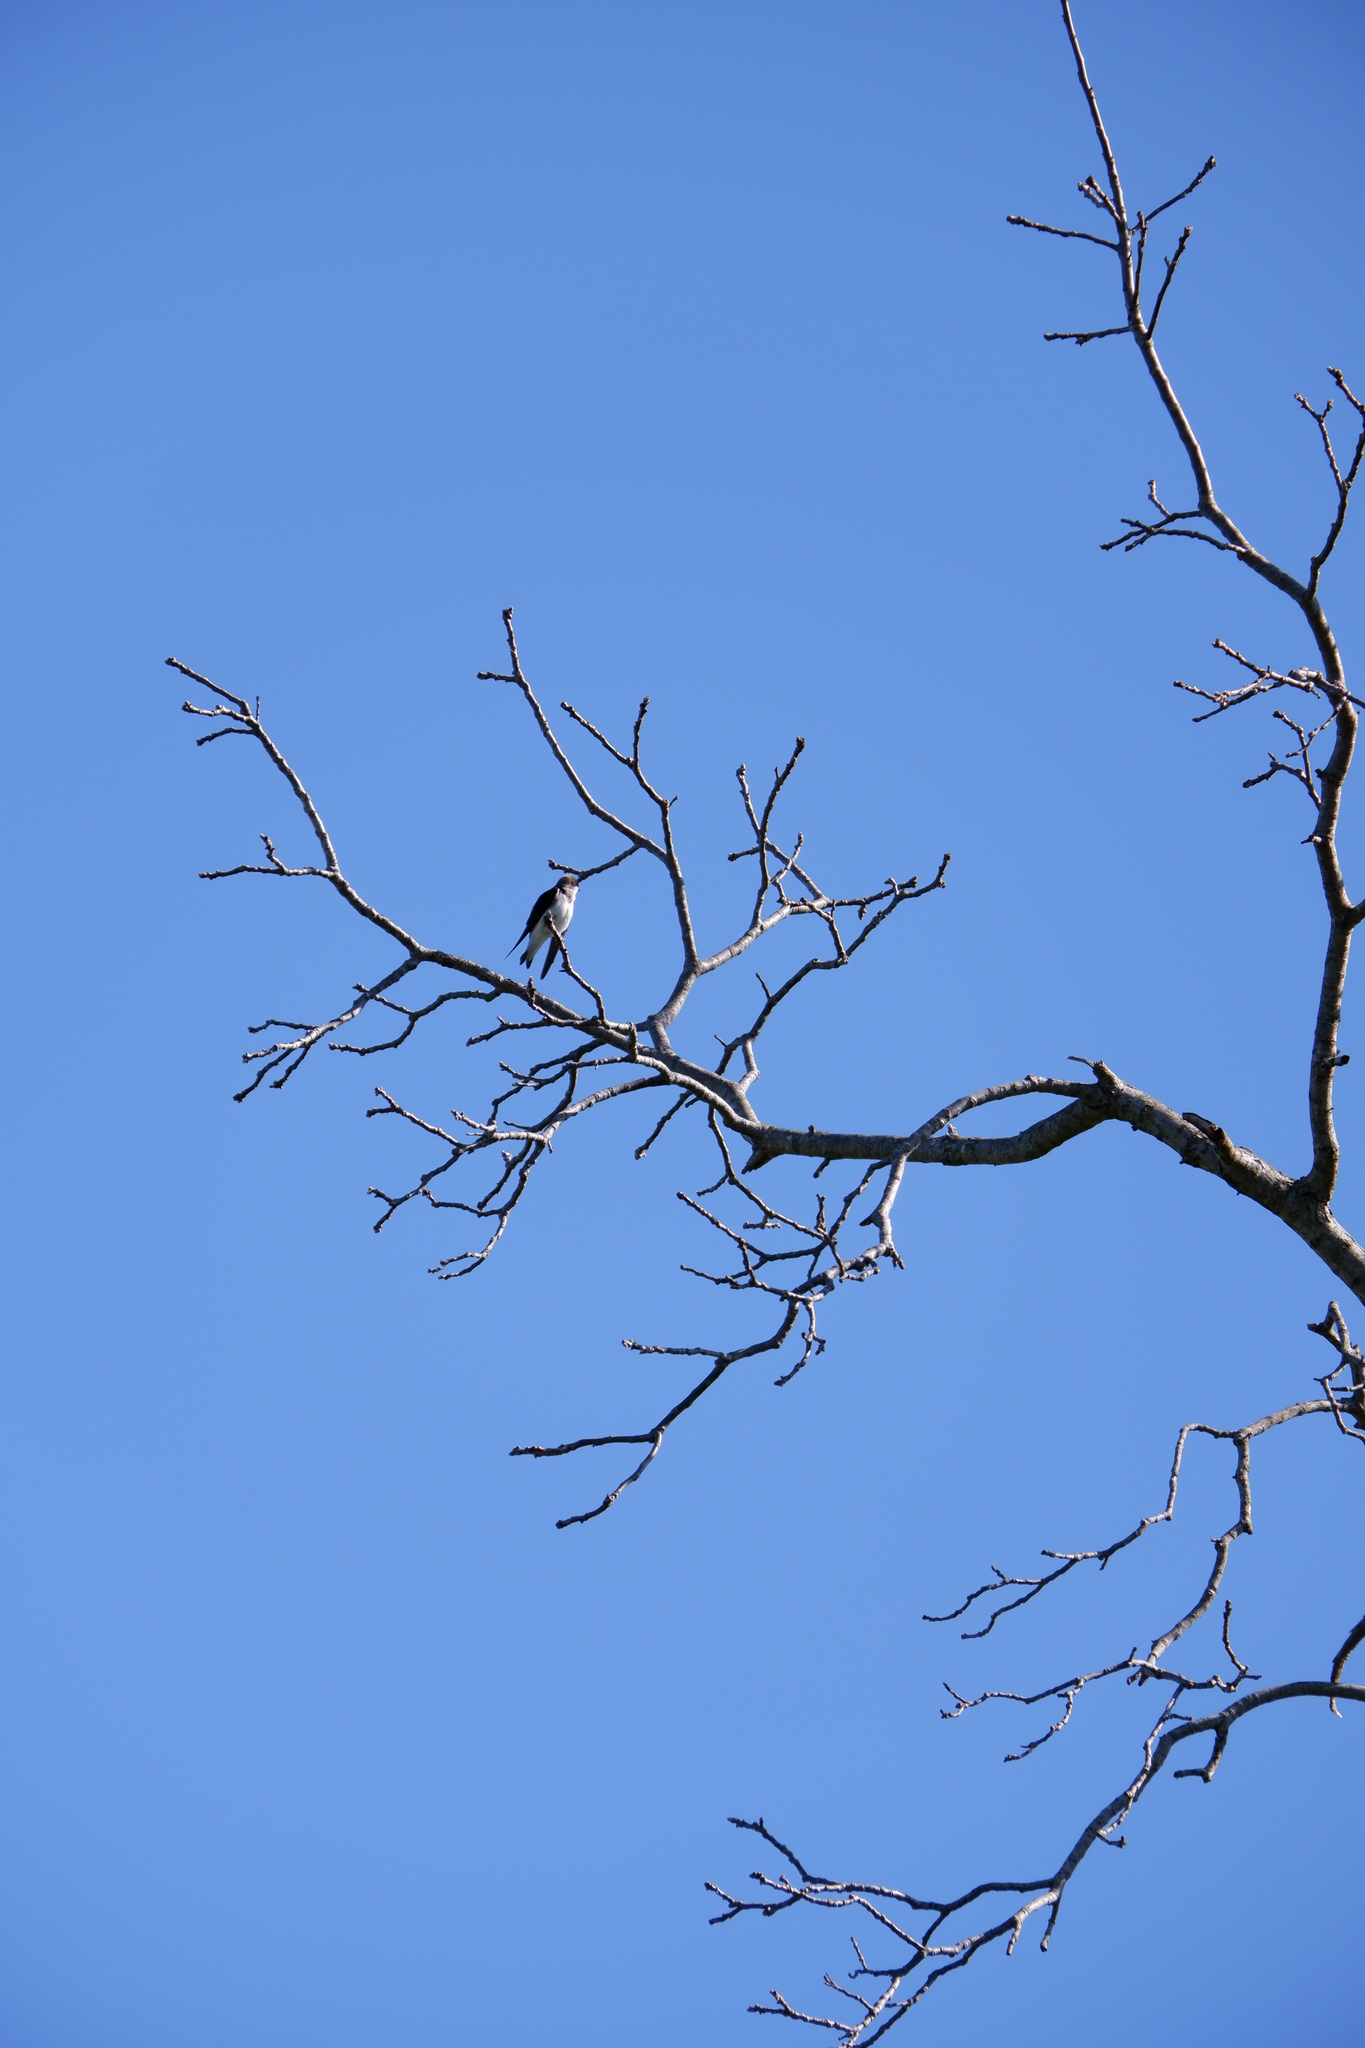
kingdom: Animalia
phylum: Chordata
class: Aves
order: Passeriformes
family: Hirundinidae
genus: Tachycineta
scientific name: Tachycineta bicolor
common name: Tree swallow
